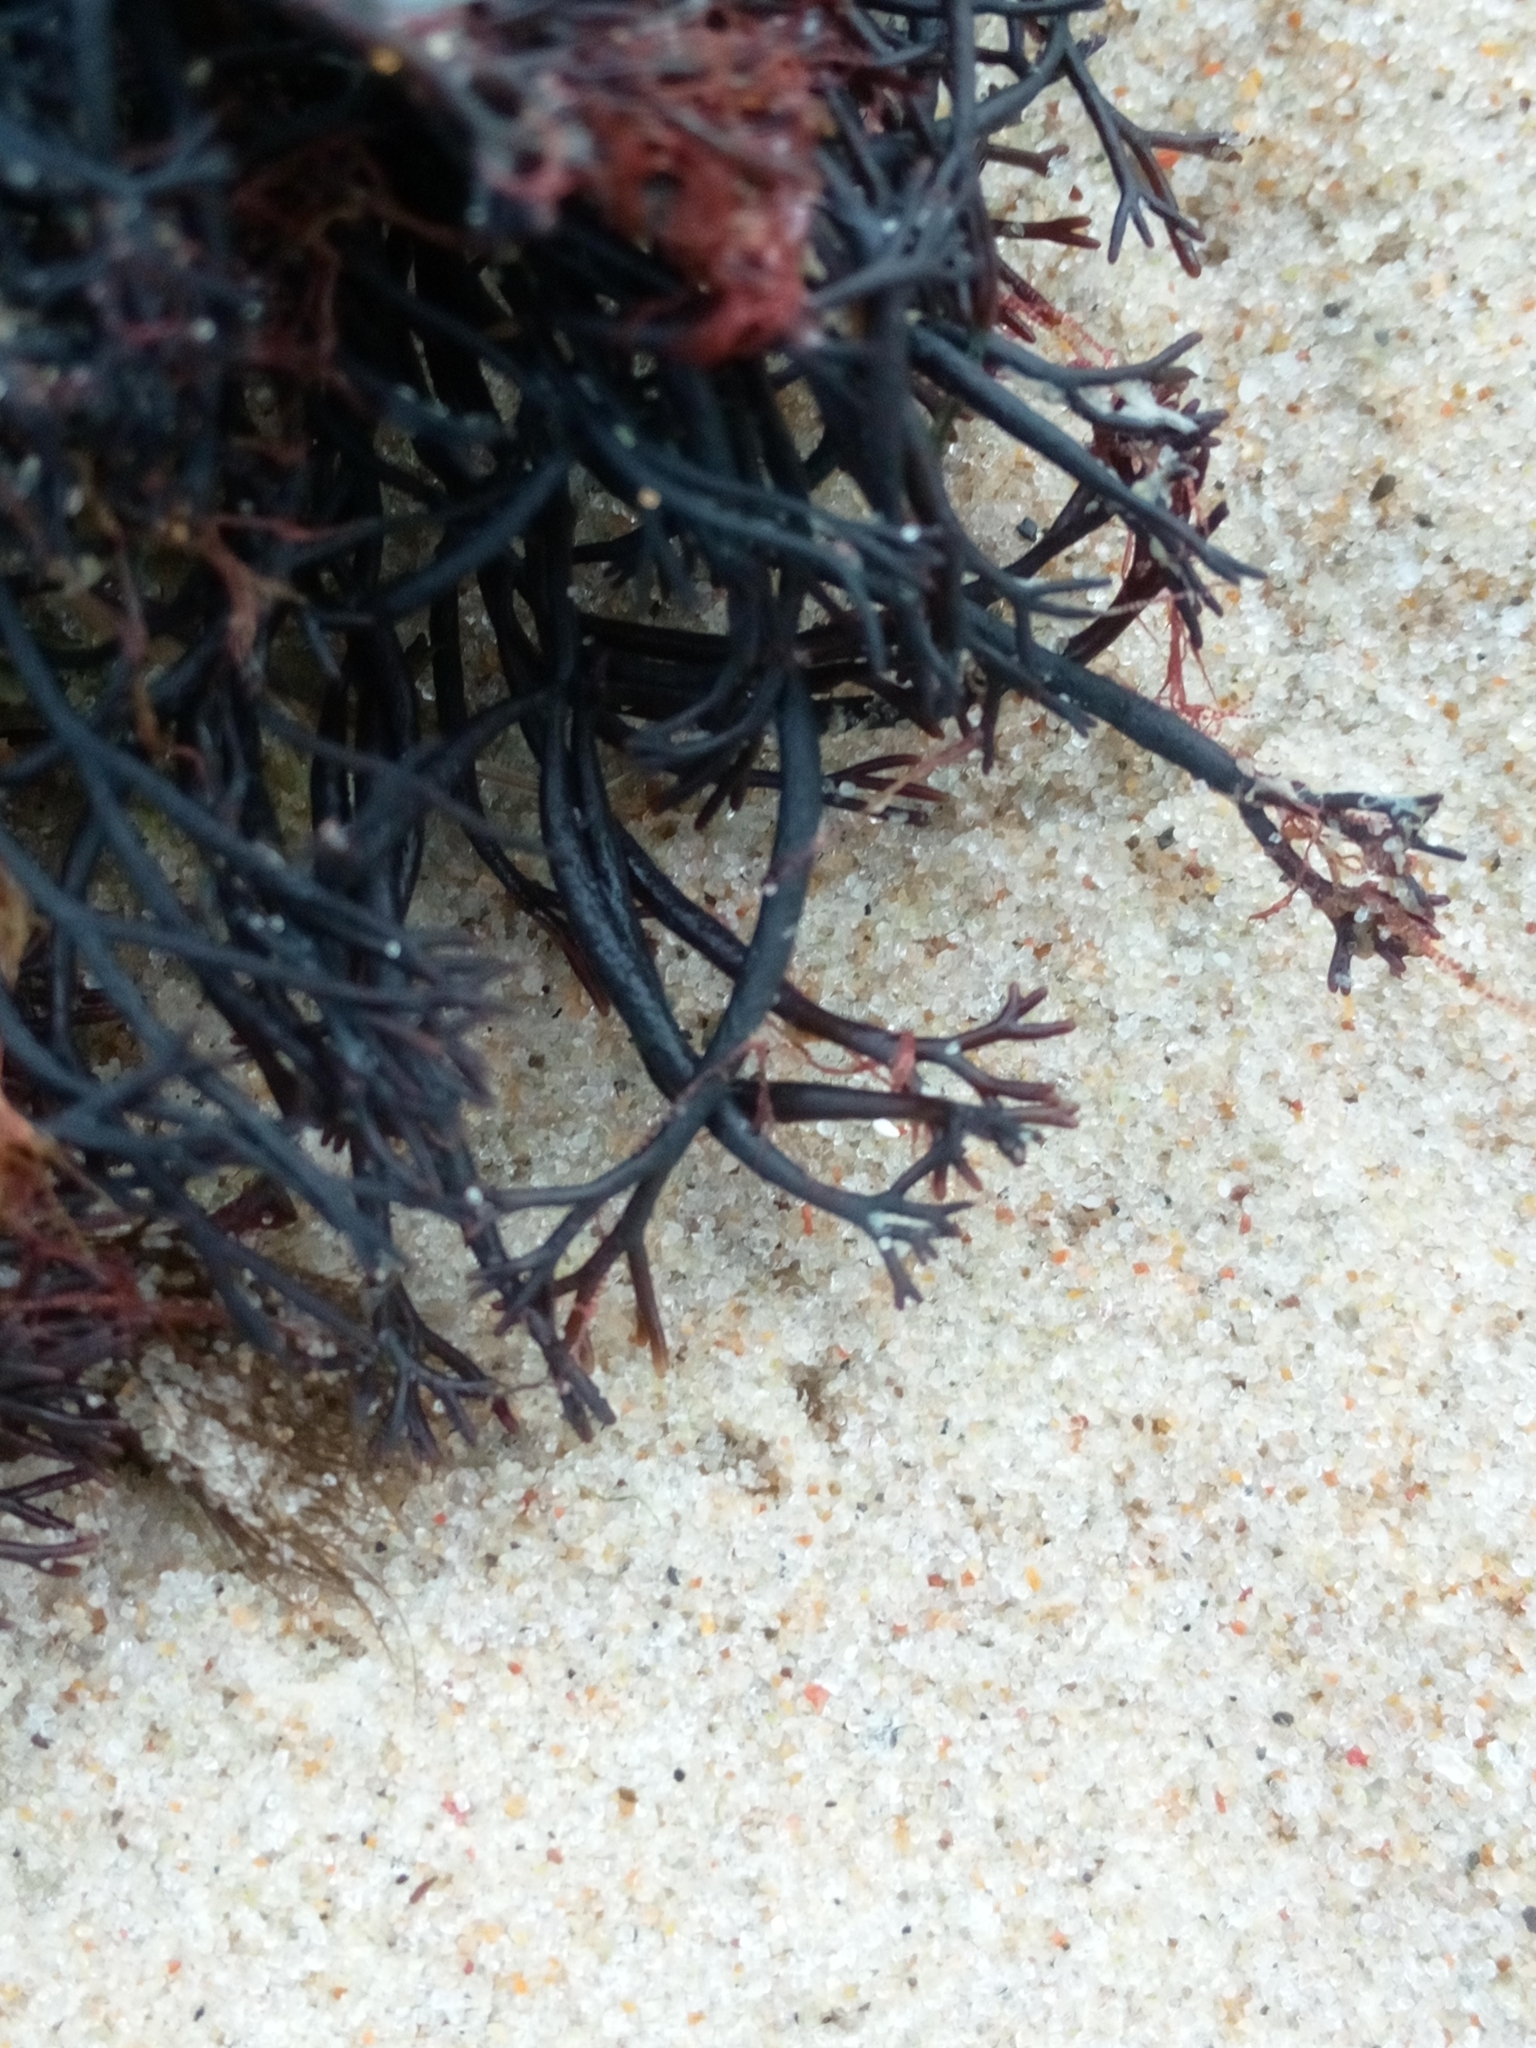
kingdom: Plantae
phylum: Rhodophyta
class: Florideophyceae
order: Gigartinales
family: Furcellariaceae
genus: Furcellaria
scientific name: Furcellaria lumbricalis
